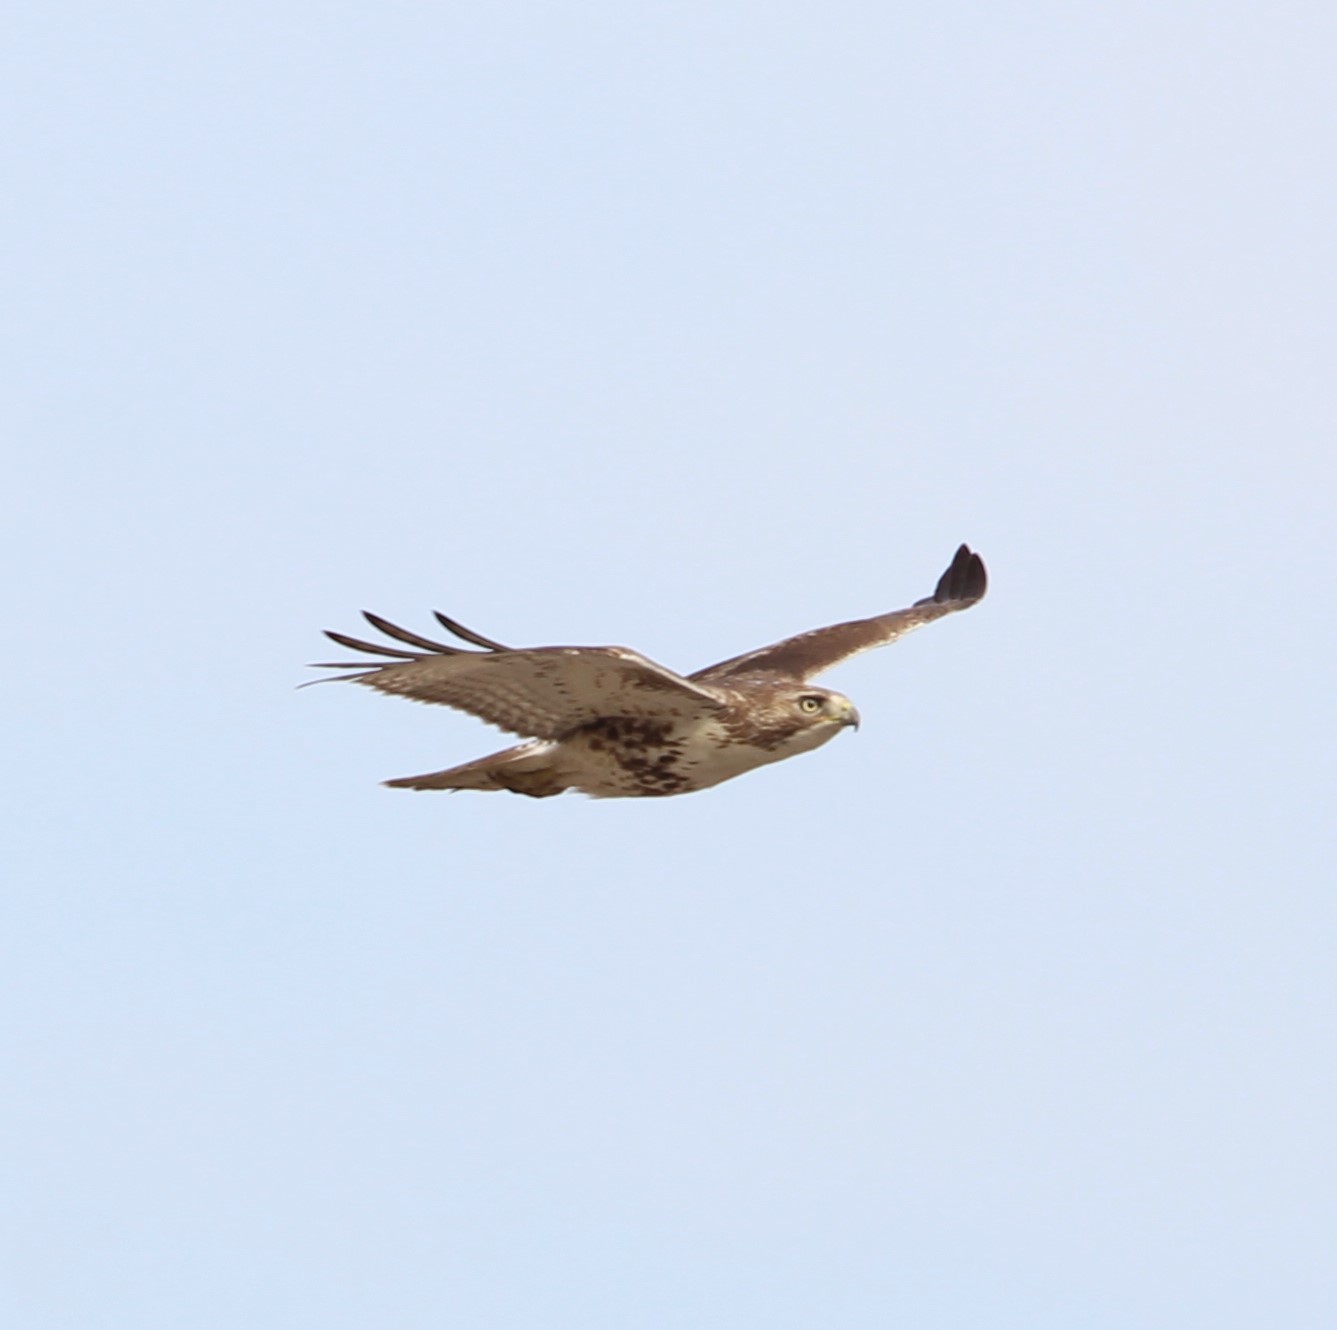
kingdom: Animalia
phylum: Chordata
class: Aves
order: Accipitriformes
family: Accipitridae
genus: Buteo
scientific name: Buteo jamaicensis
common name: Red-tailed hawk
